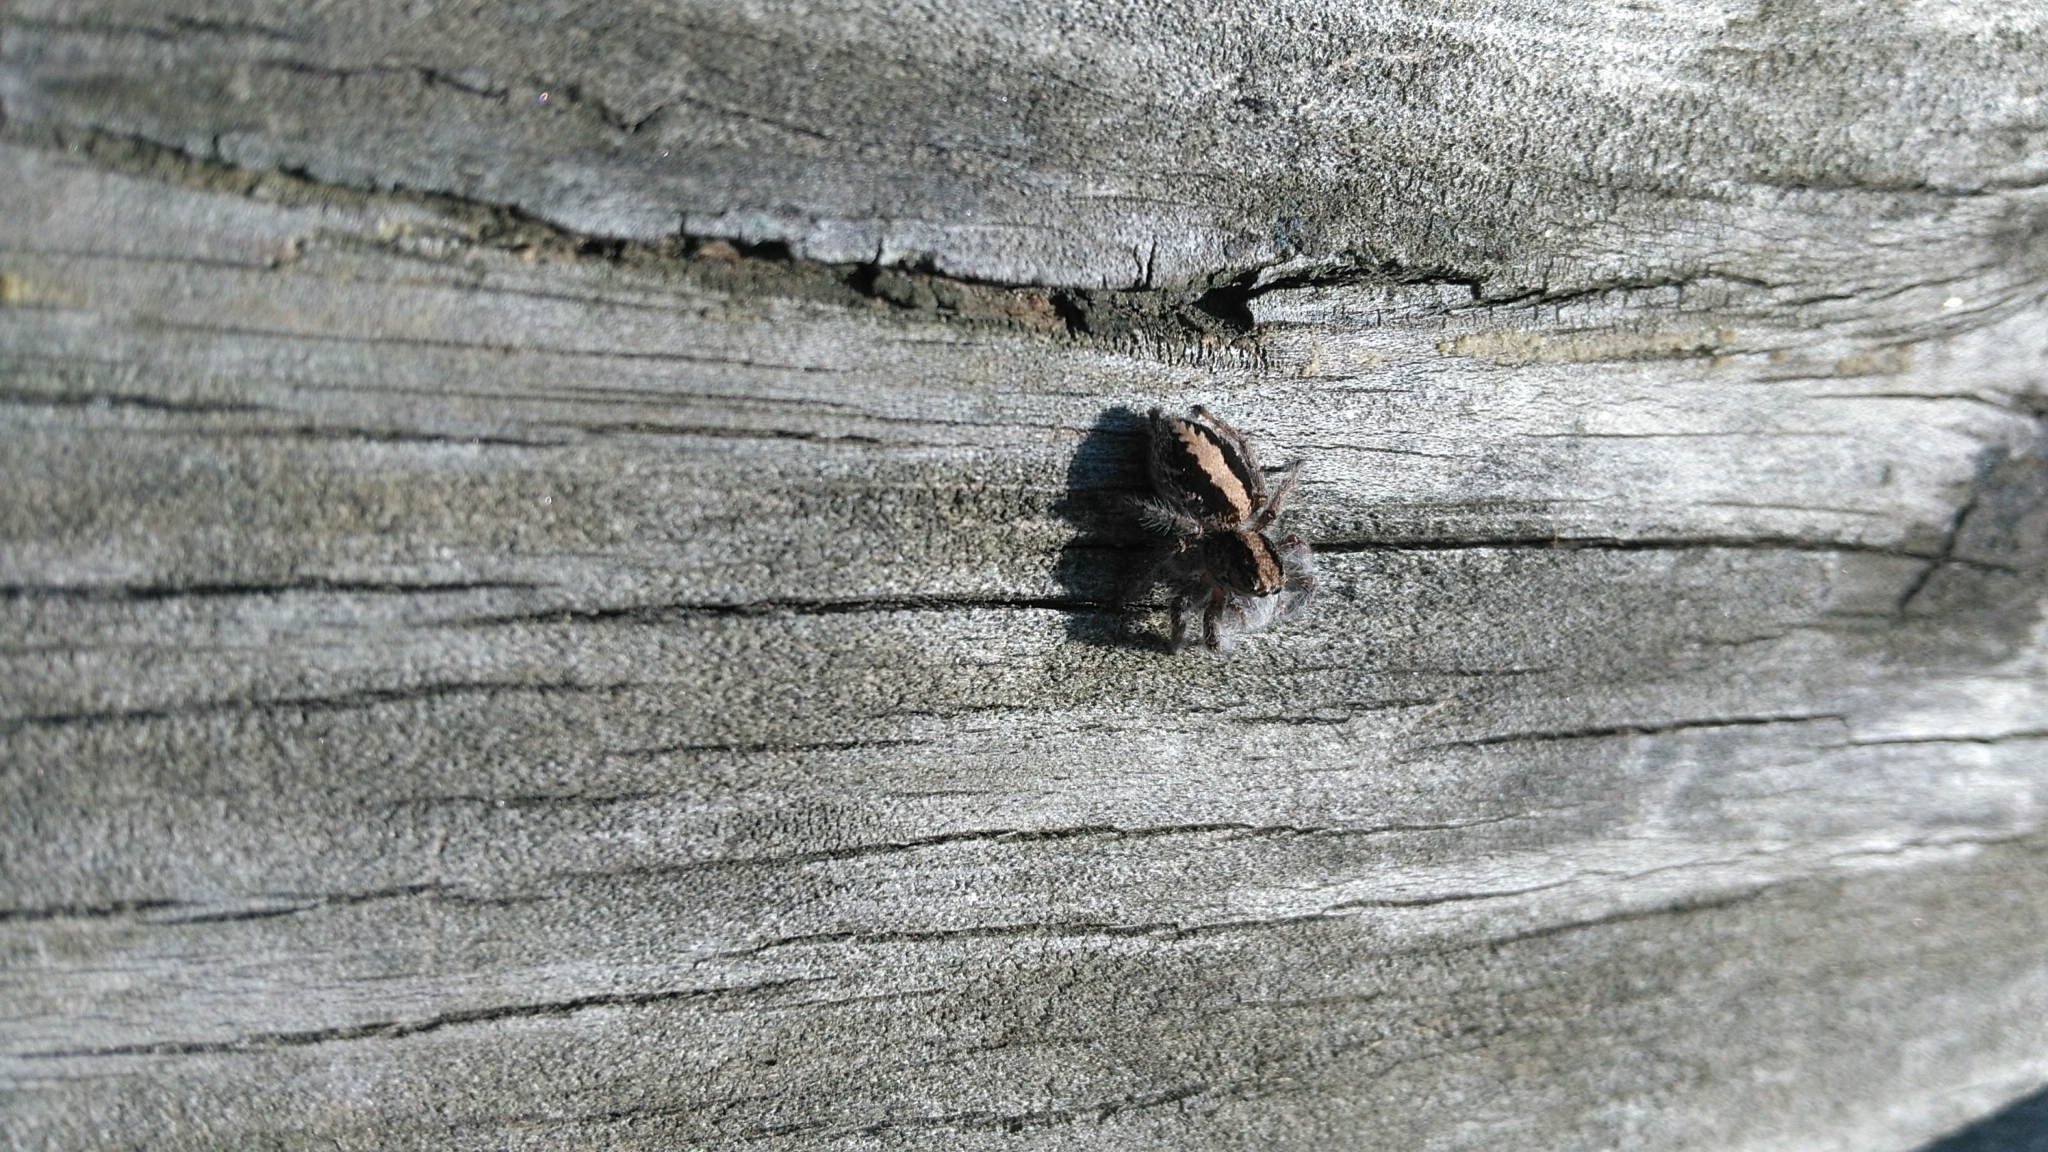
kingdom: Animalia
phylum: Arthropoda
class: Arachnida
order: Araneae
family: Salticidae
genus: Megafreya
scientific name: Megafreya sutrix
